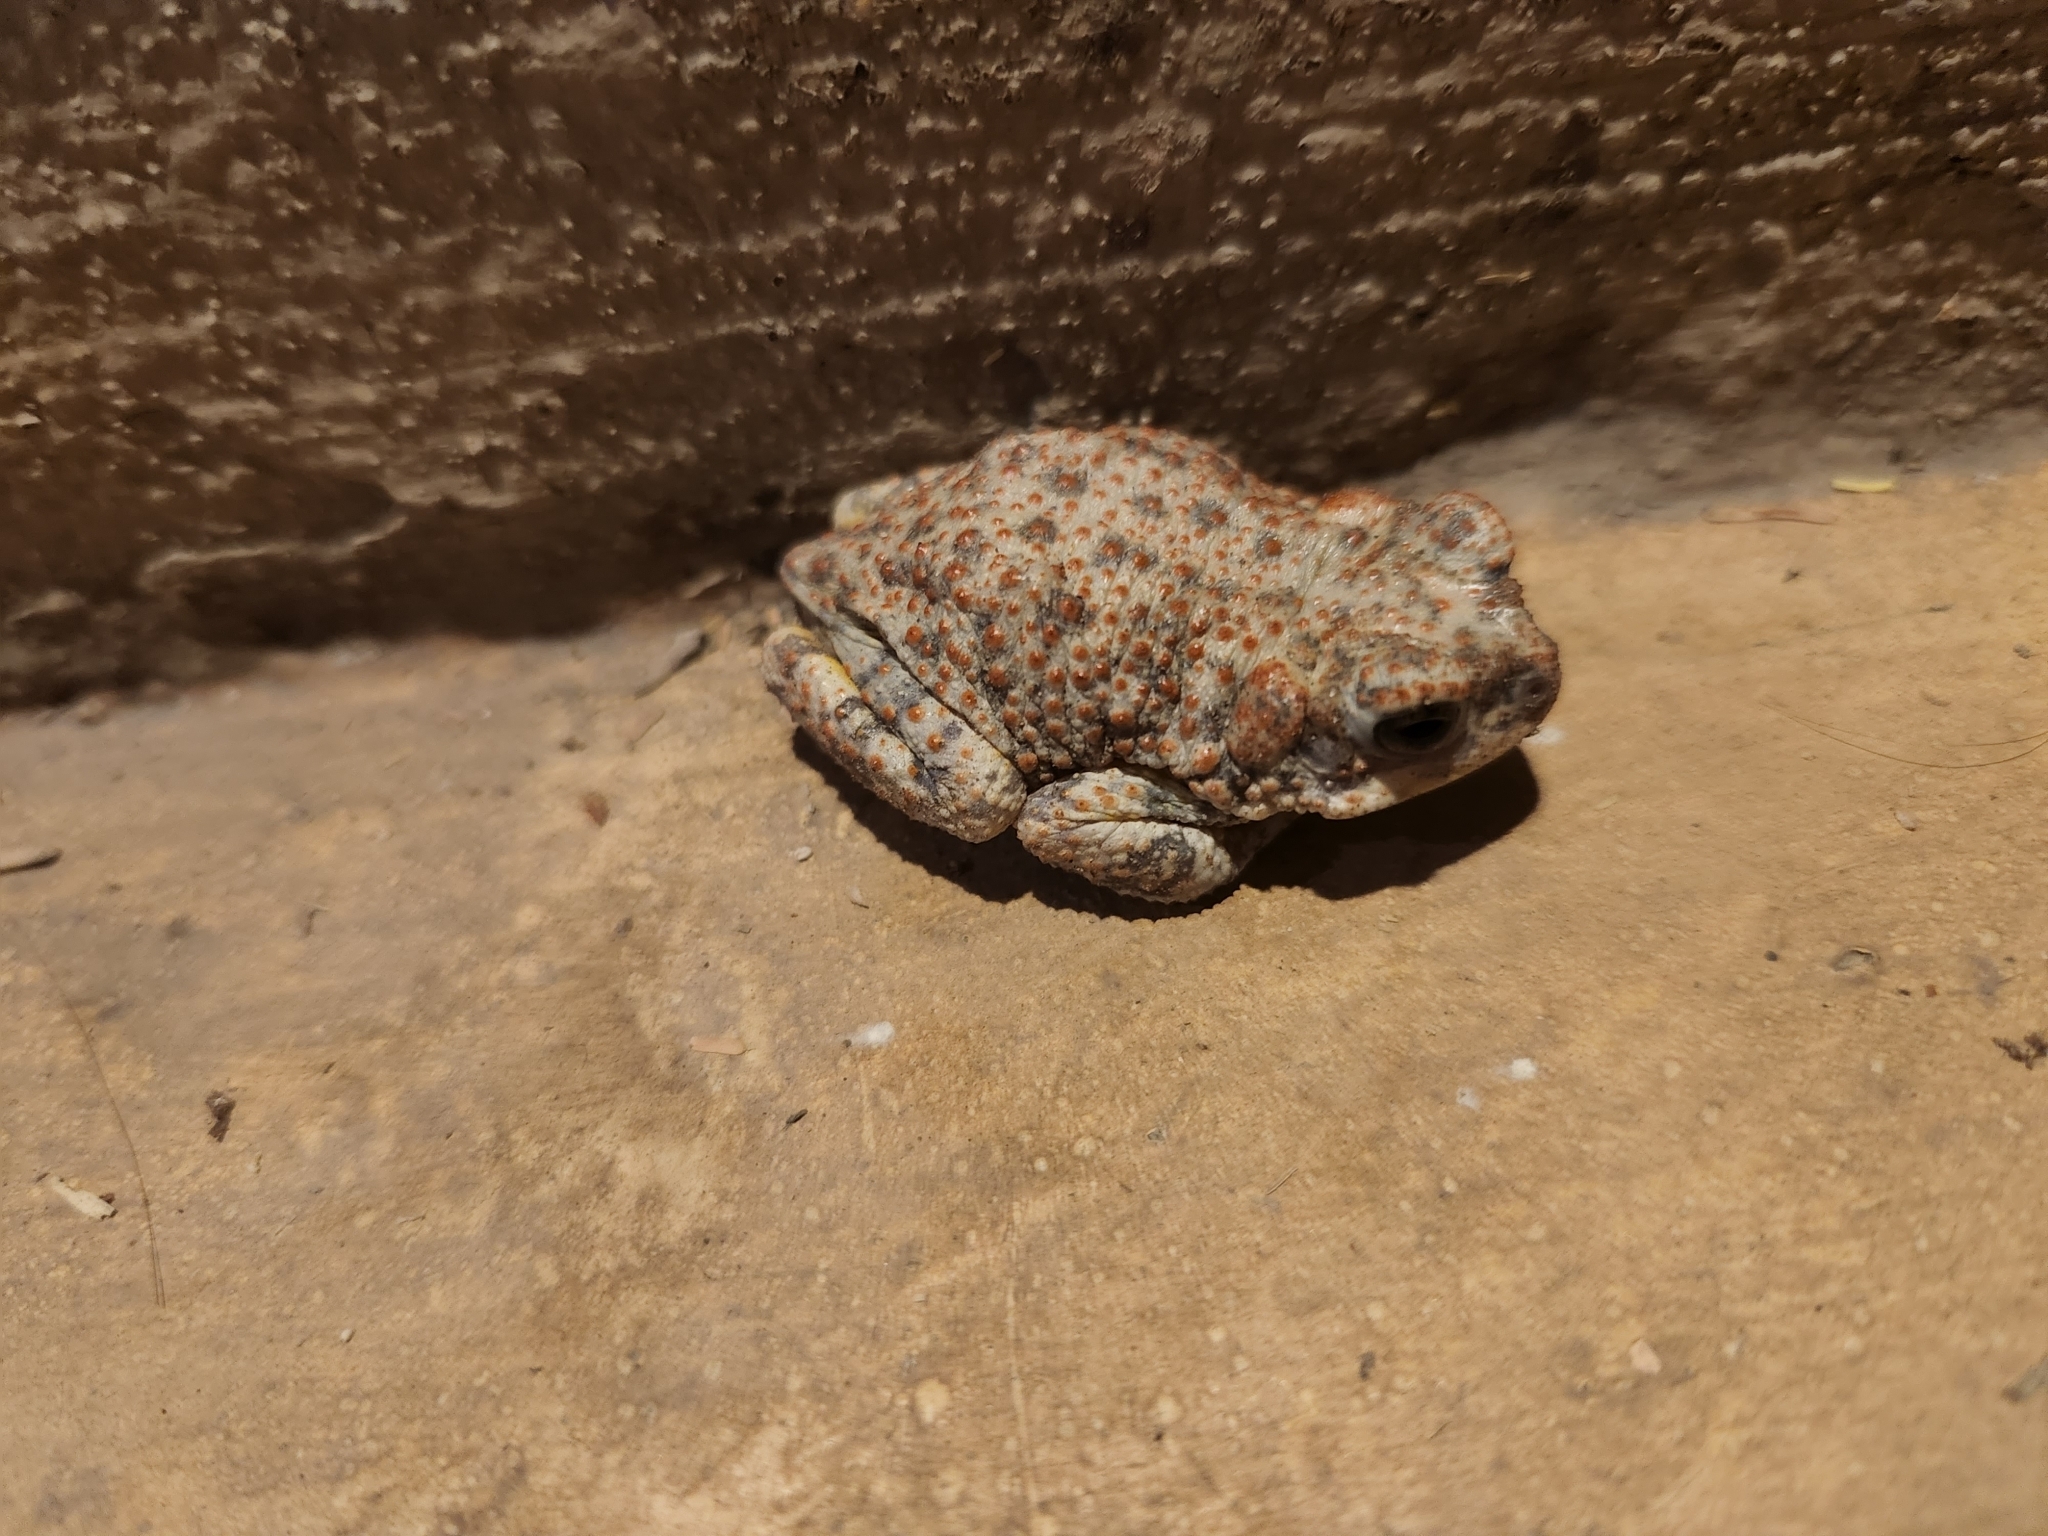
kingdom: Animalia
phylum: Chordata
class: Amphibia
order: Anura
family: Bufonidae
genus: Anaxyrus
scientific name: Anaxyrus punctatus
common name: Red-spotted toad
